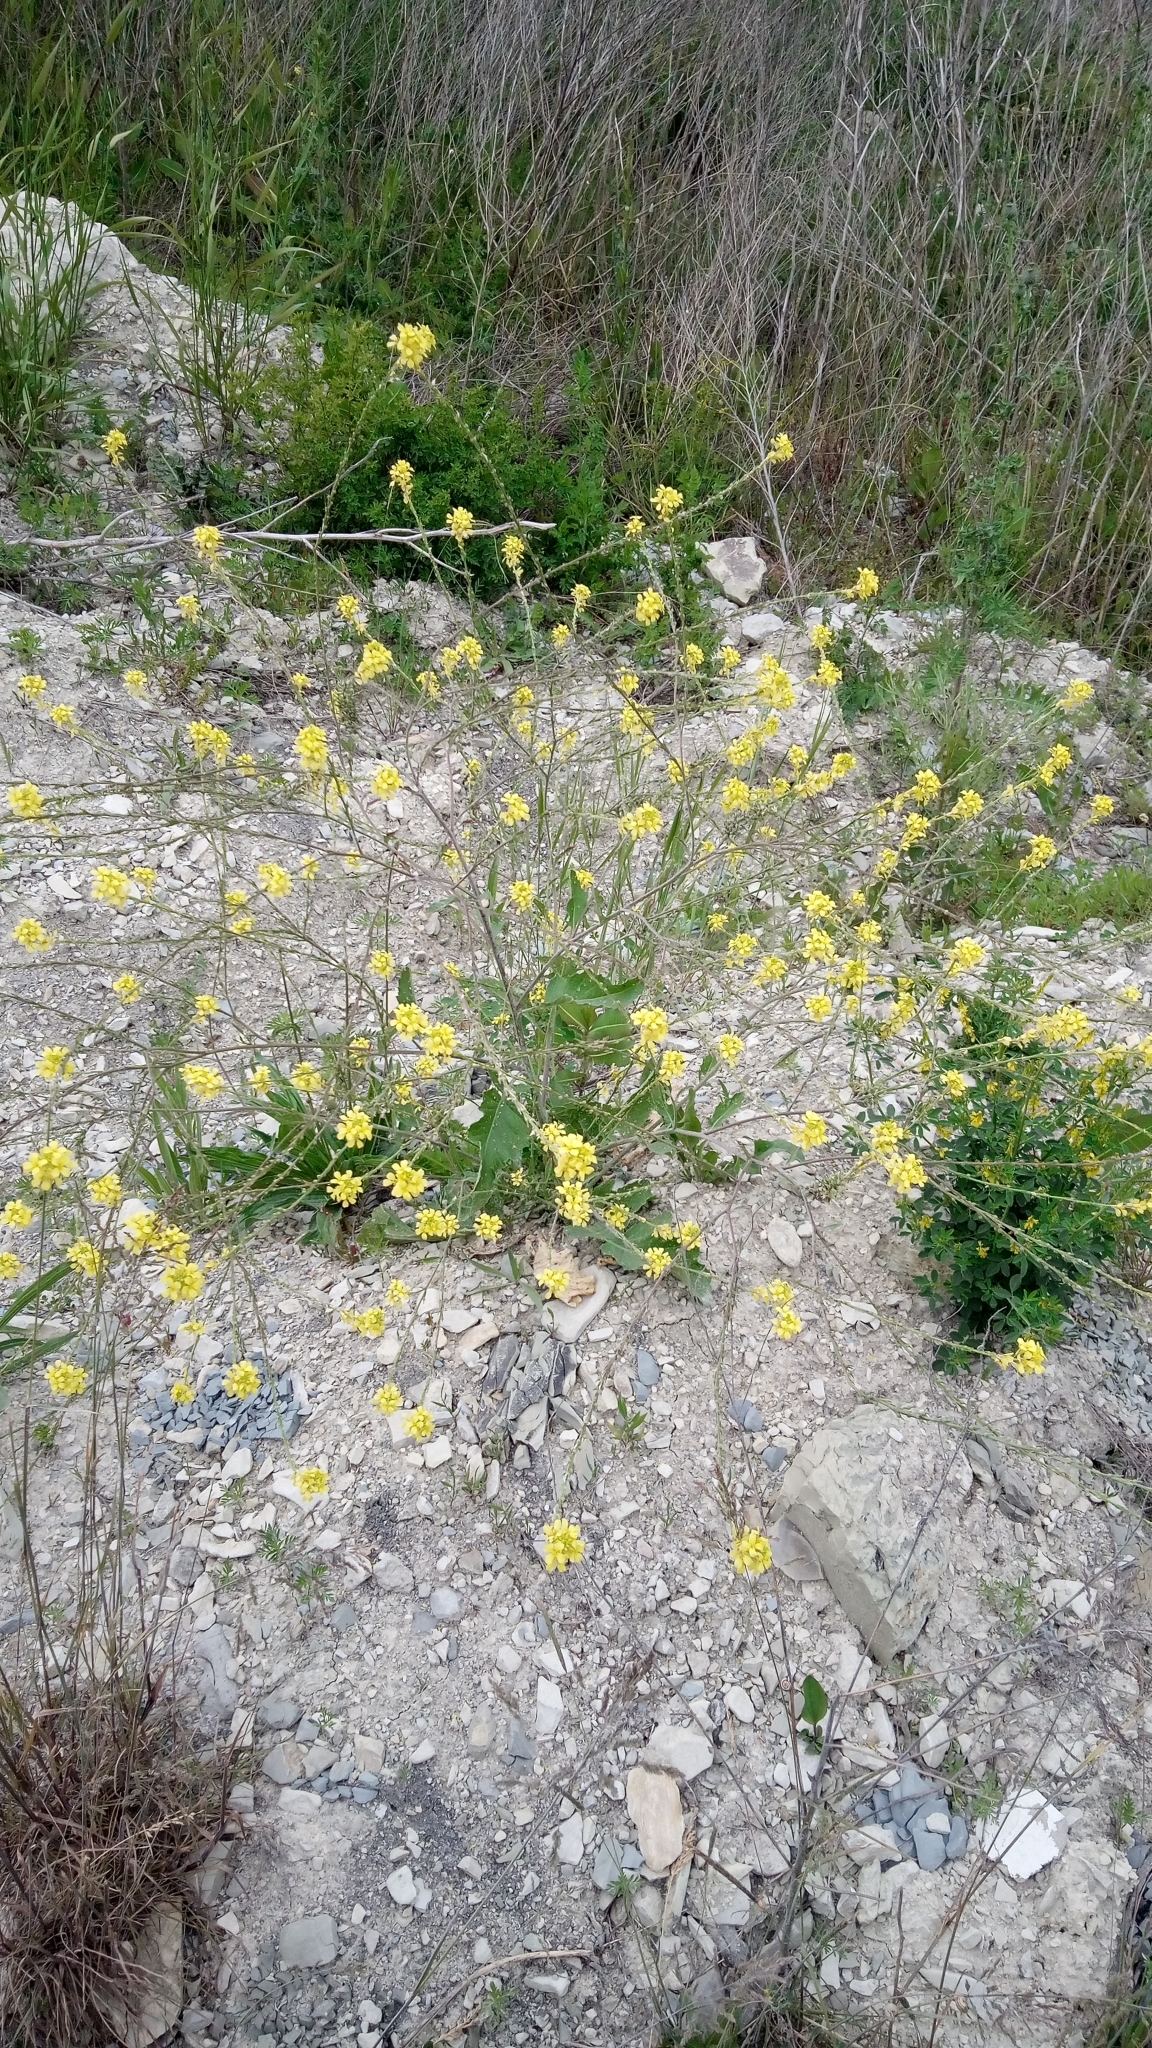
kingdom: Plantae
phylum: Tracheophyta
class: Magnoliopsida
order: Brassicales
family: Brassicaceae
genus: Rapistrum
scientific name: Rapistrum rugosum
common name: Annual bastardcabbage
